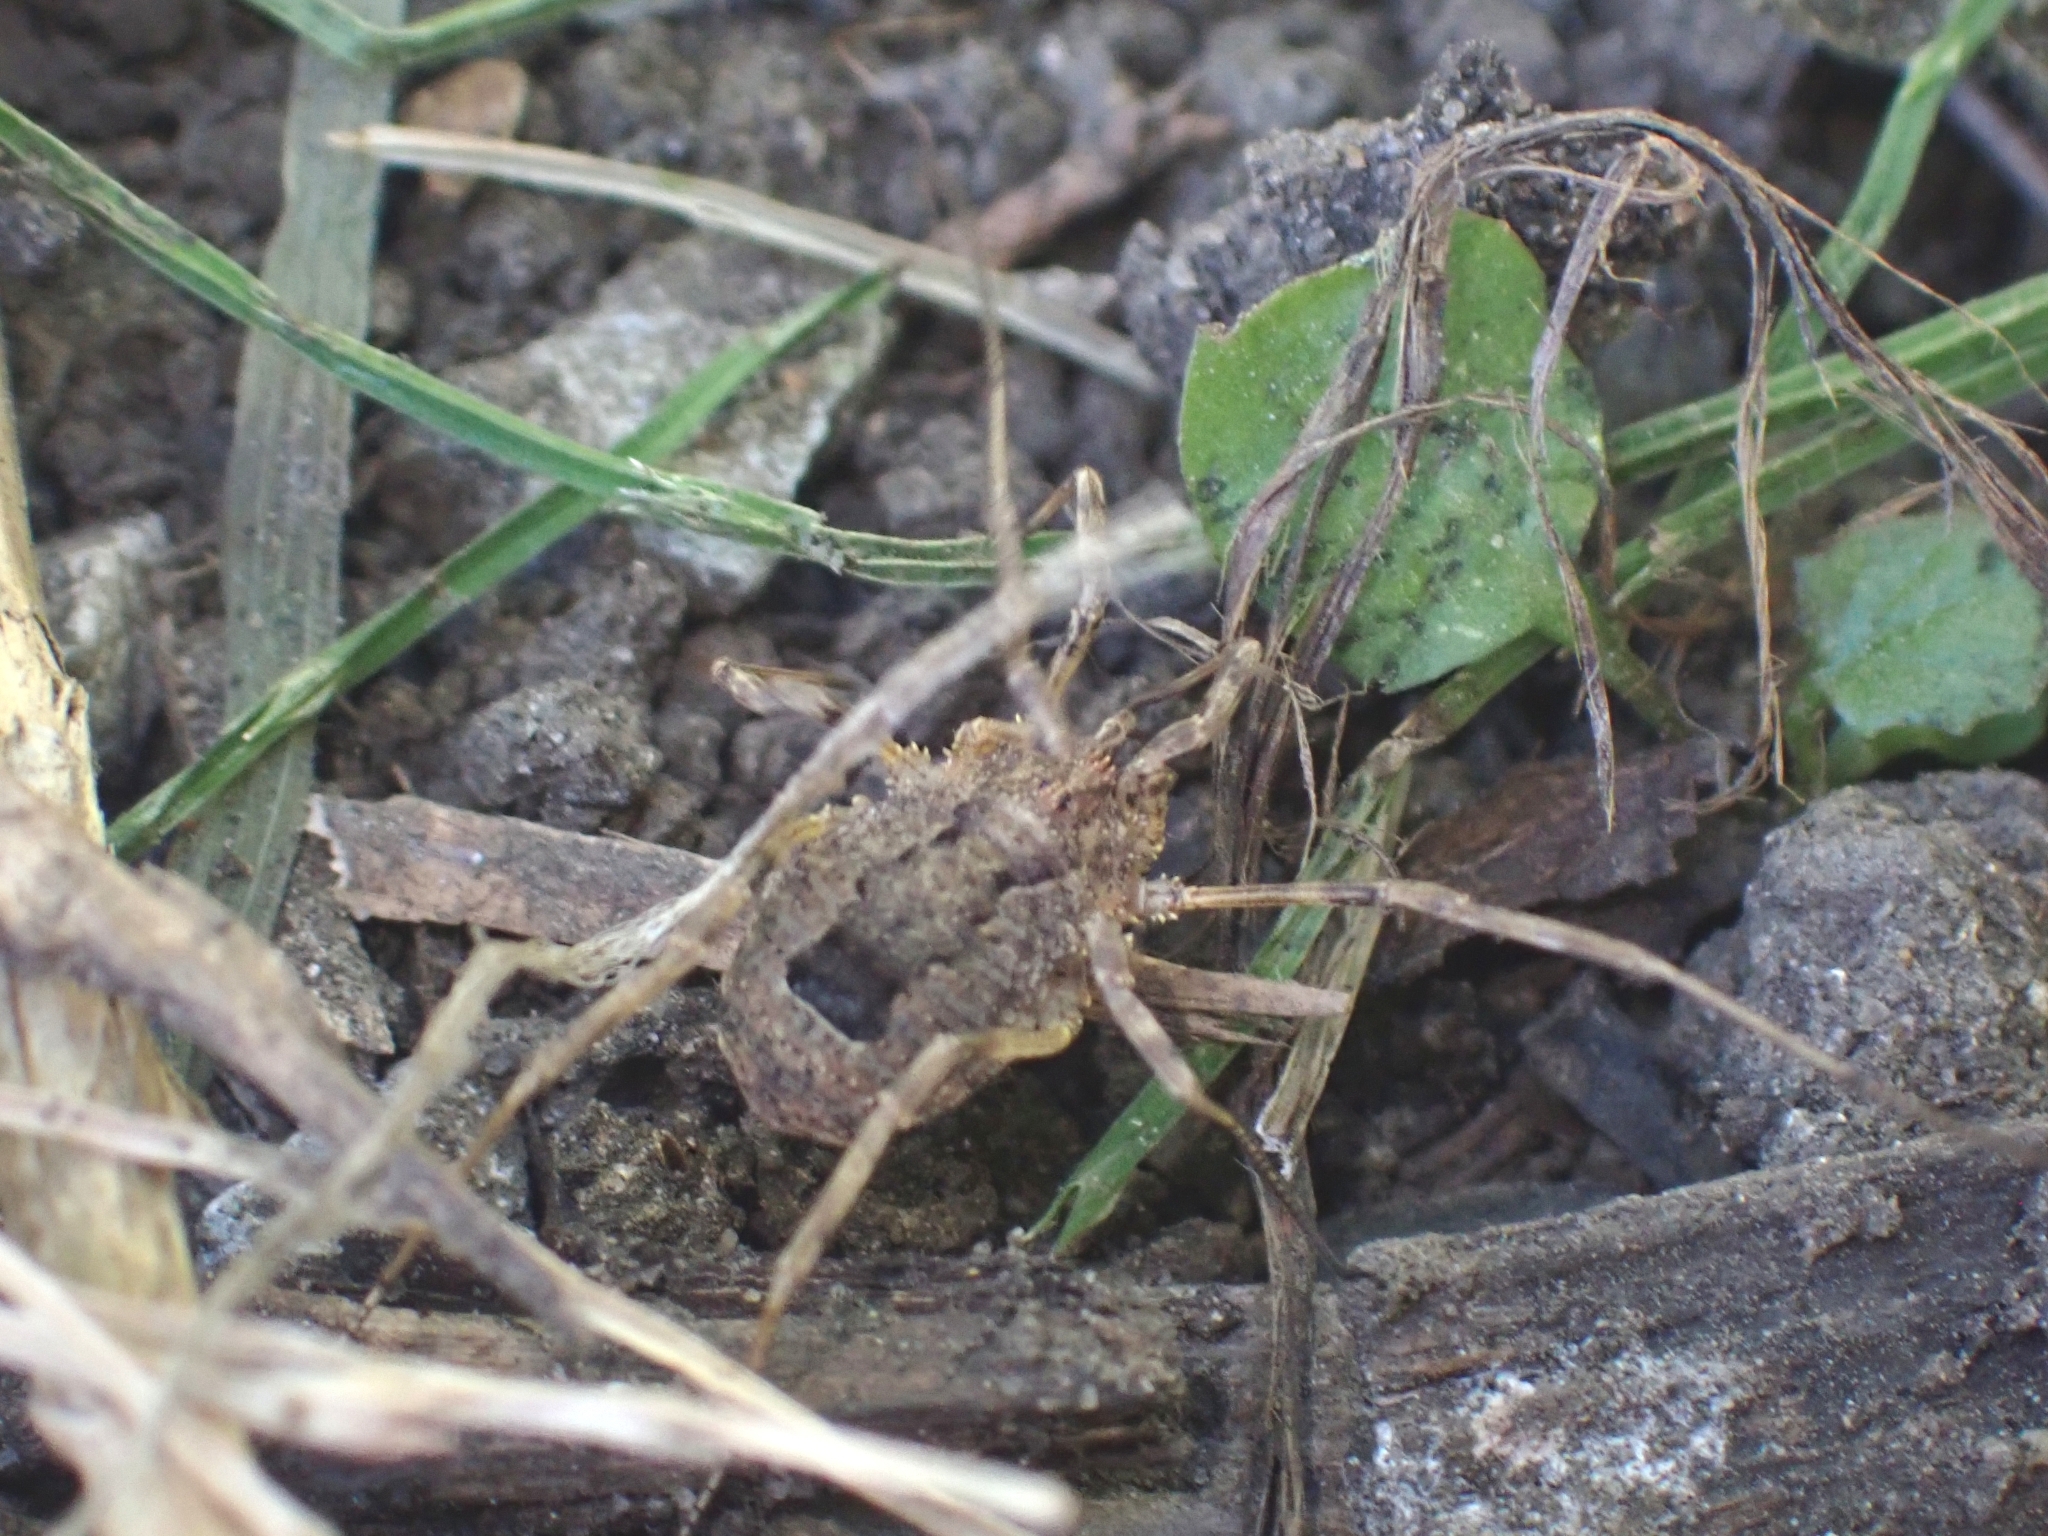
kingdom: Animalia
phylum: Arthropoda
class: Arachnida
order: Opiliones
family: Phalangiidae
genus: Odiellus
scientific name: Odiellus spinosus
